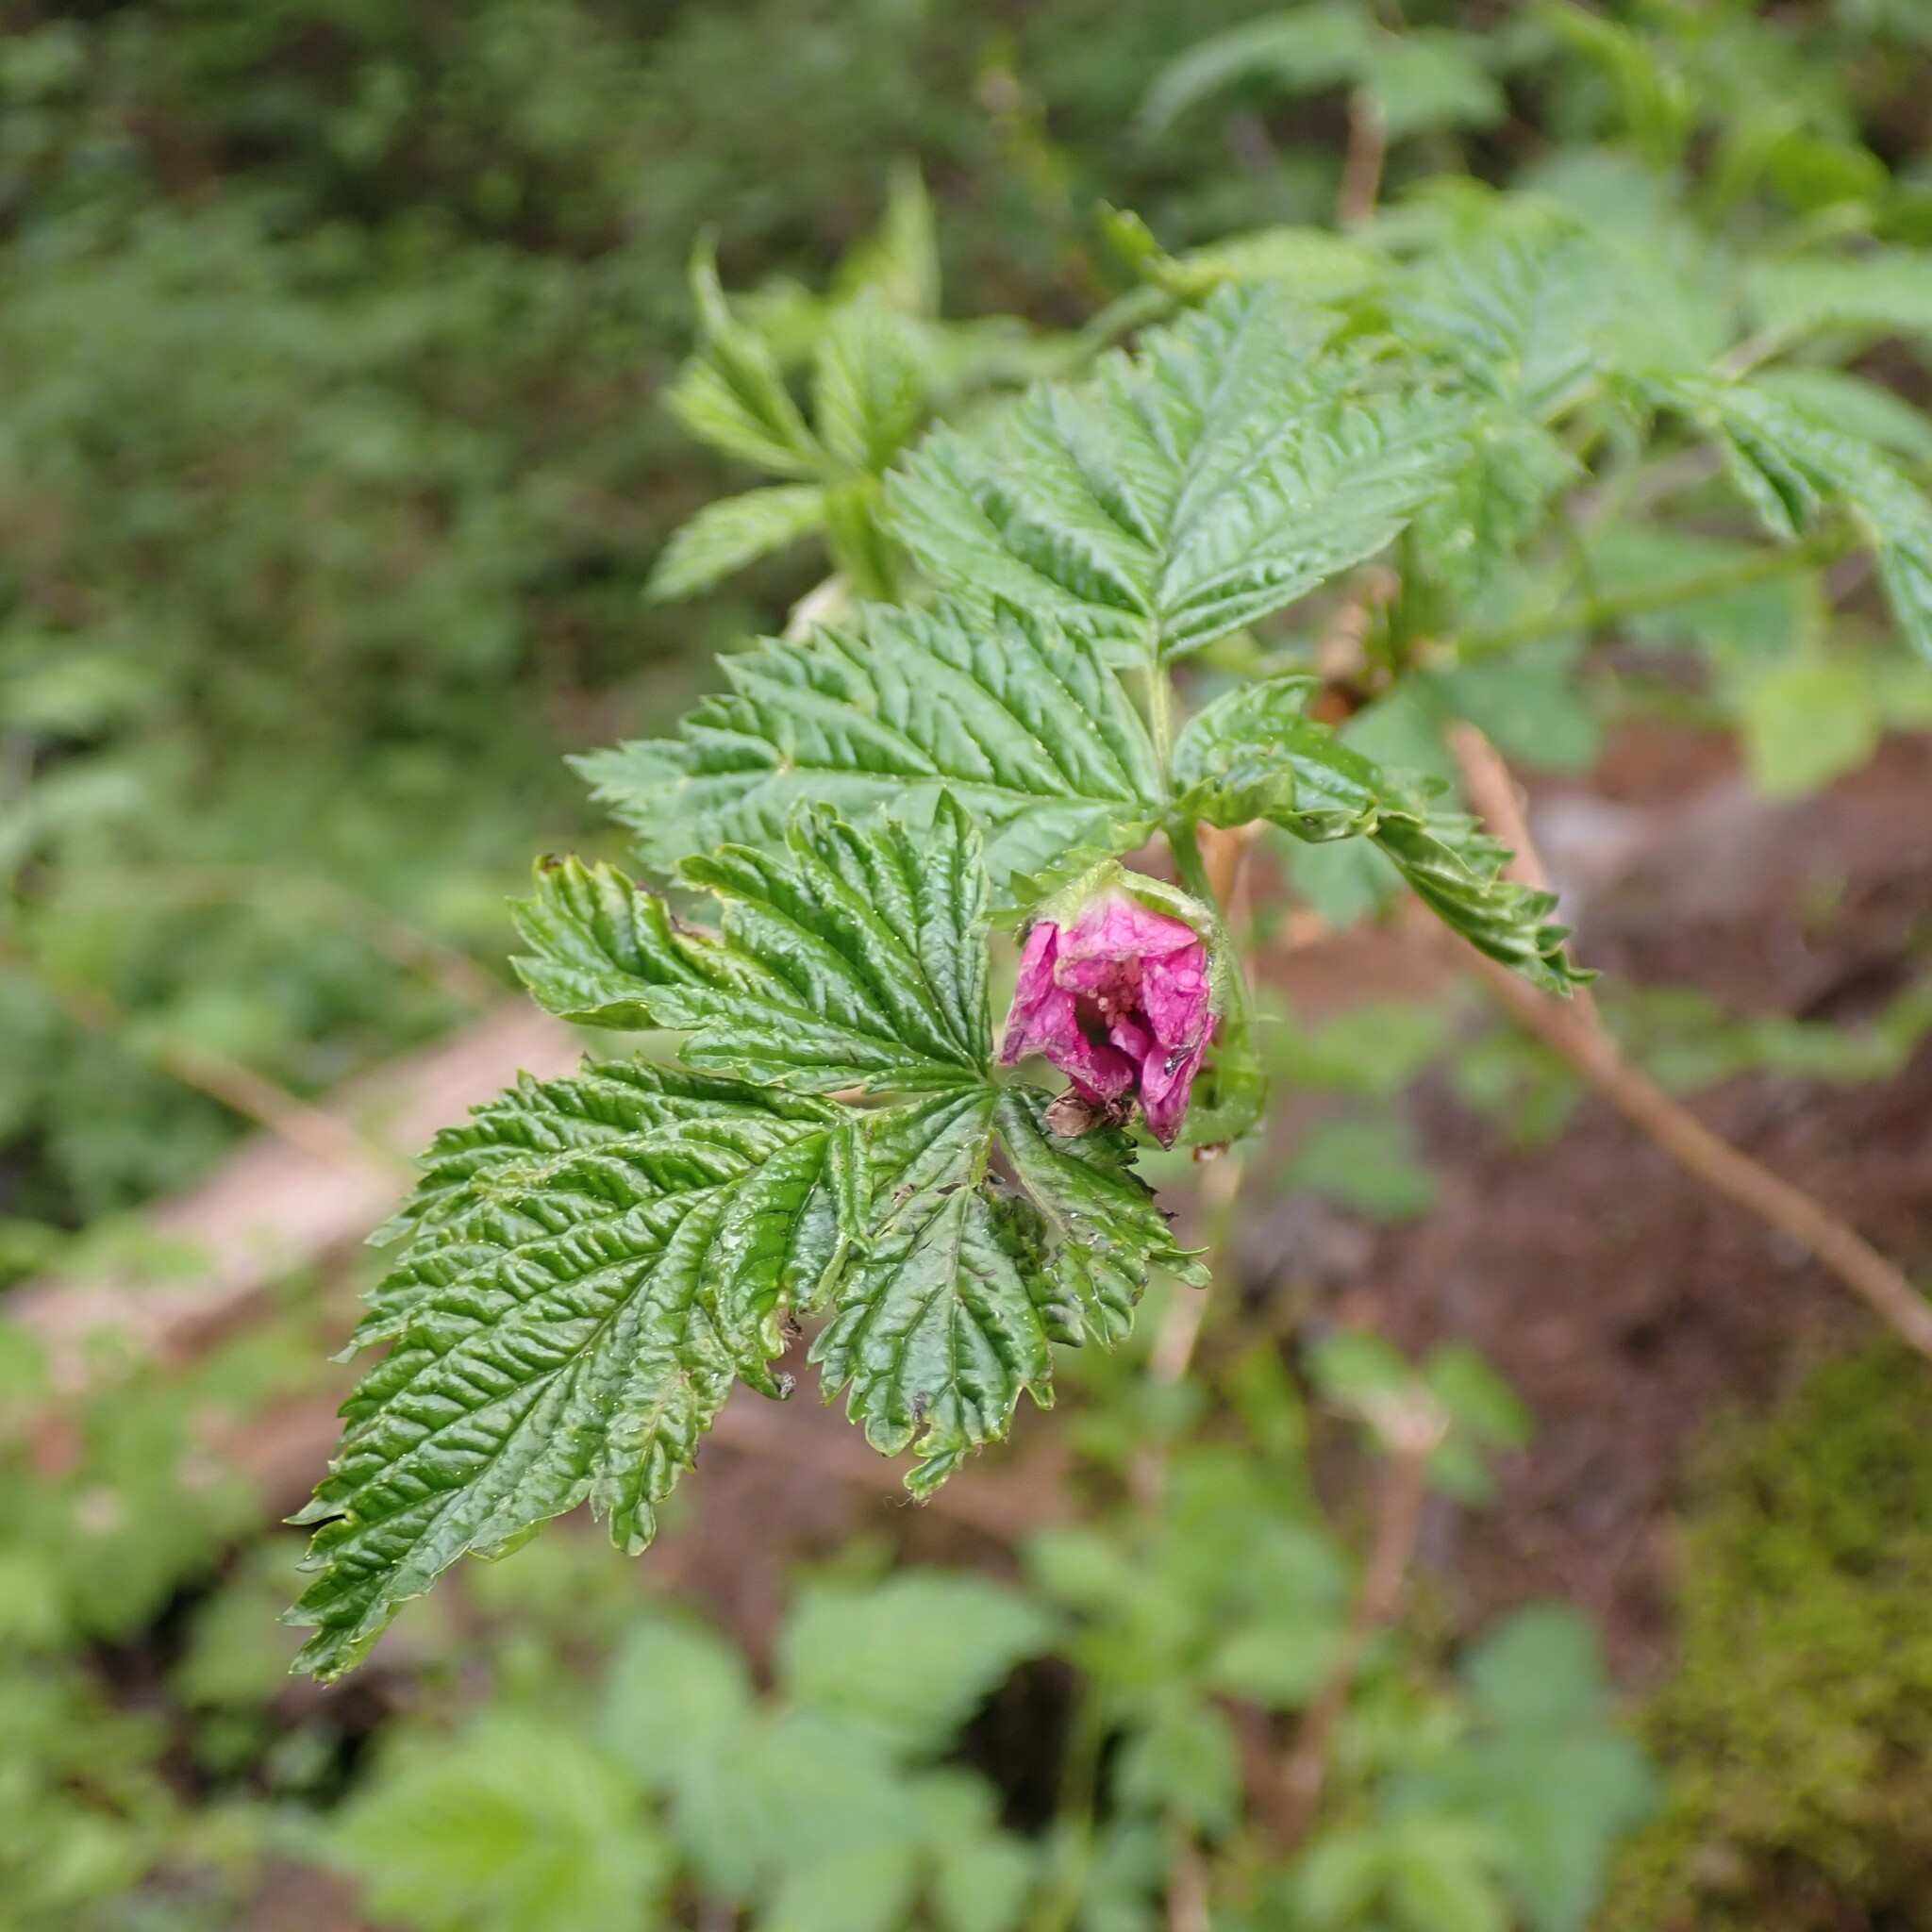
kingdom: Plantae
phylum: Tracheophyta
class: Magnoliopsida
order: Rosales
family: Rosaceae
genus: Rubus
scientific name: Rubus spectabilis
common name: Salmonberry
